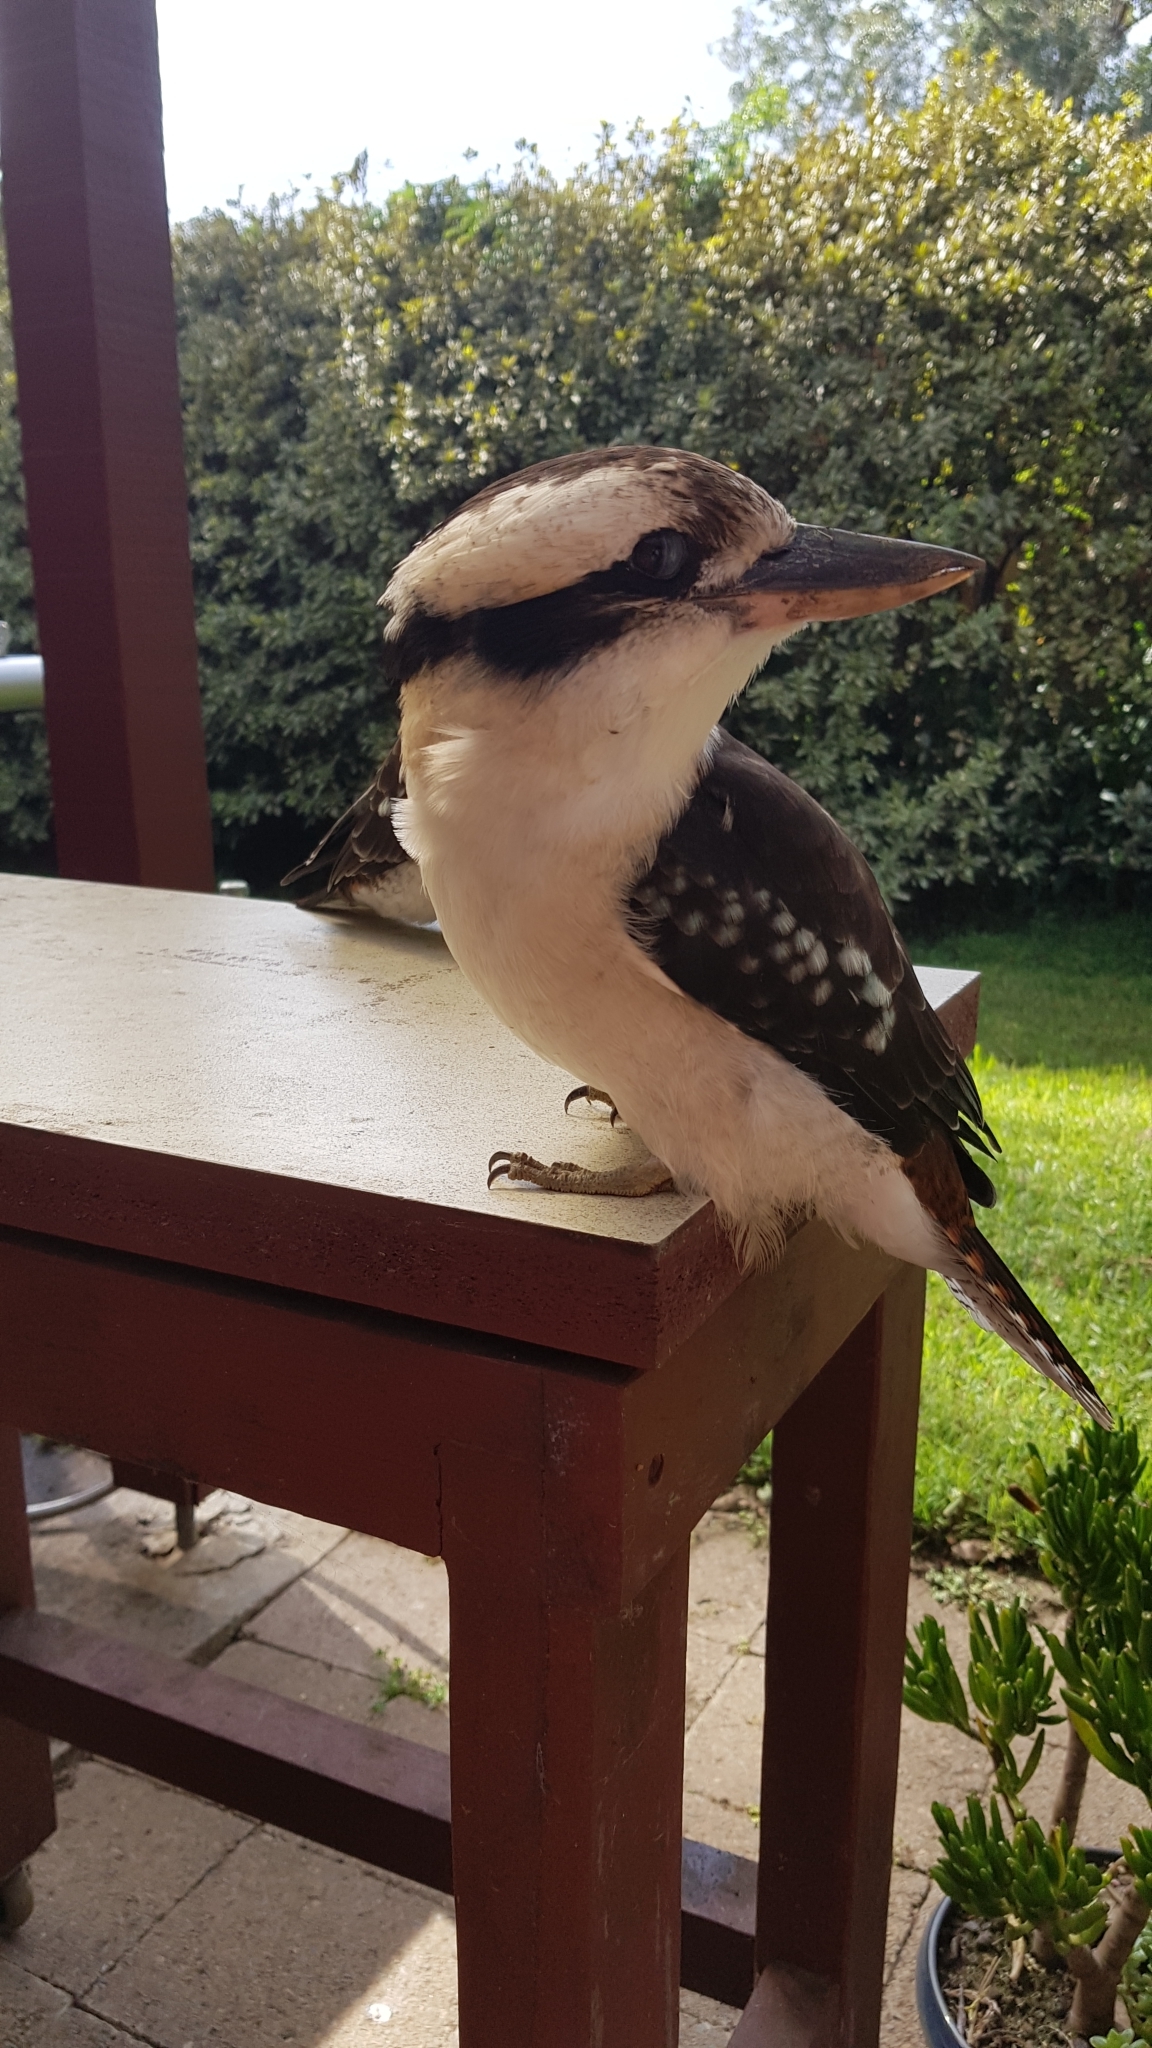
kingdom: Animalia
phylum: Chordata
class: Aves
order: Coraciiformes
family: Alcedinidae
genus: Dacelo
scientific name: Dacelo novaeguineae
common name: Laughing kookaburra
